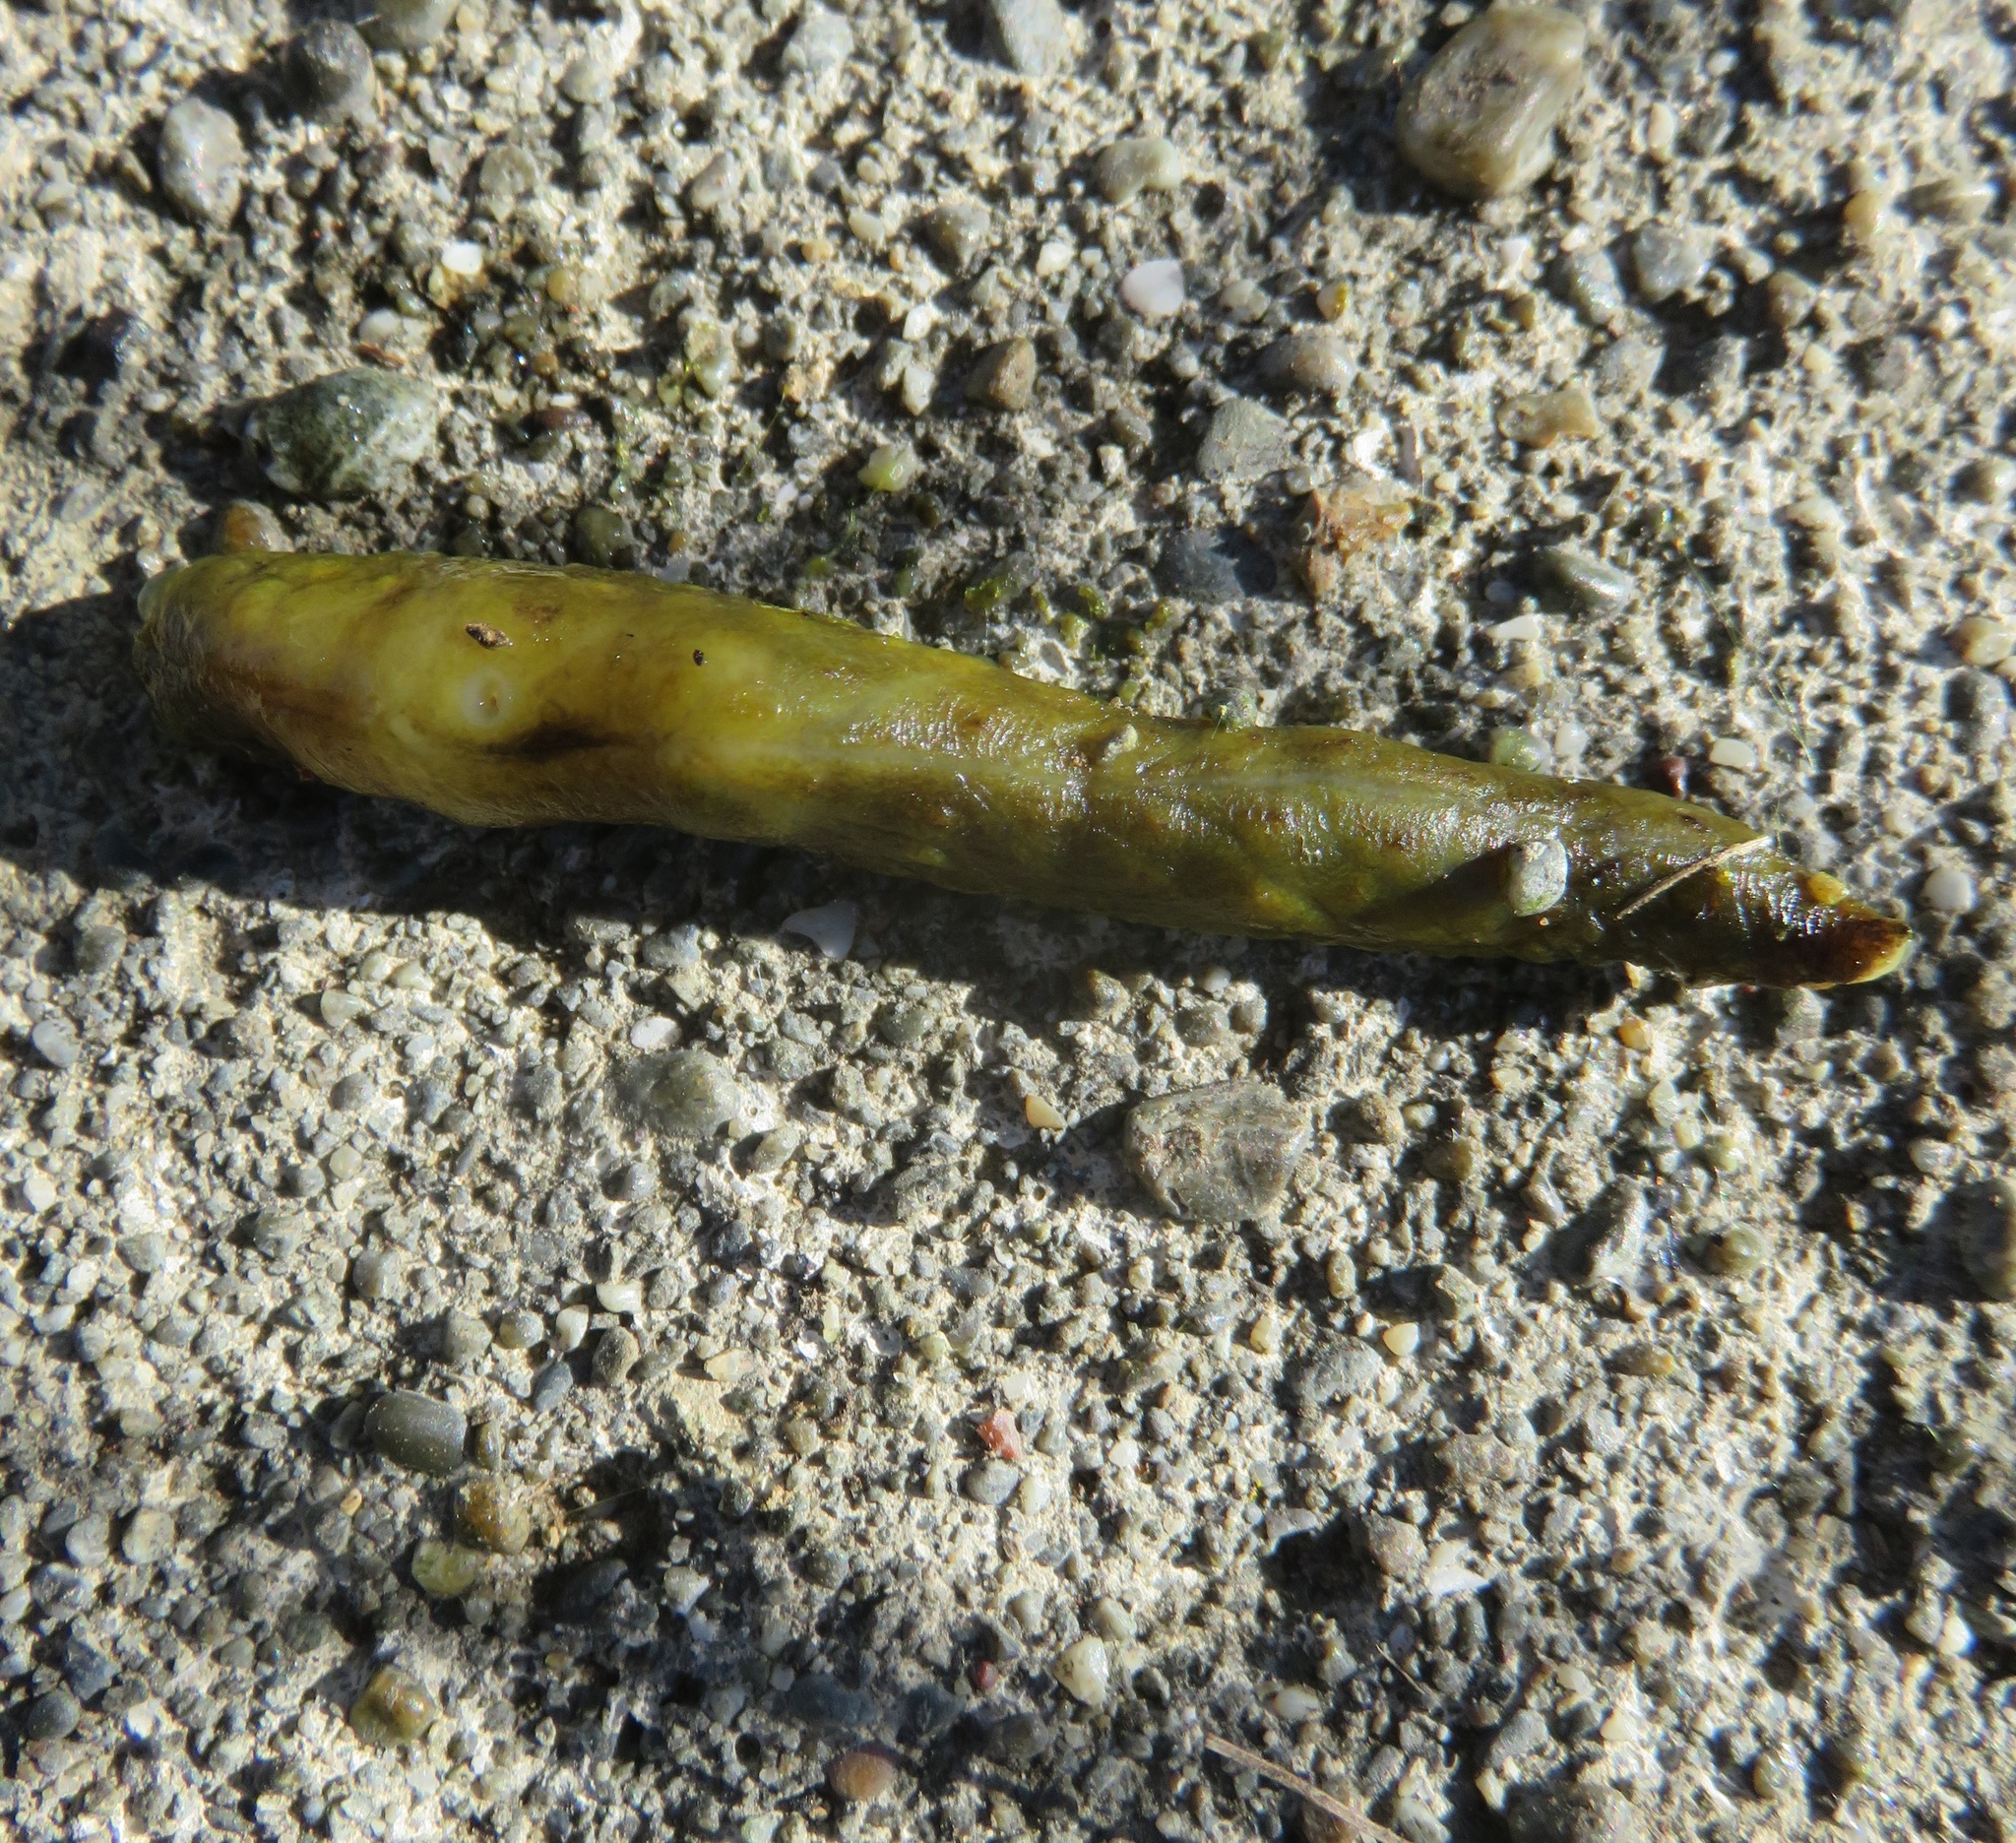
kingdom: Animalia
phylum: Mollusca
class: Gastropoda
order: Stylommatophora
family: Athoracophoridae
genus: Athoracophorus
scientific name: Athoracophorus papillatus
